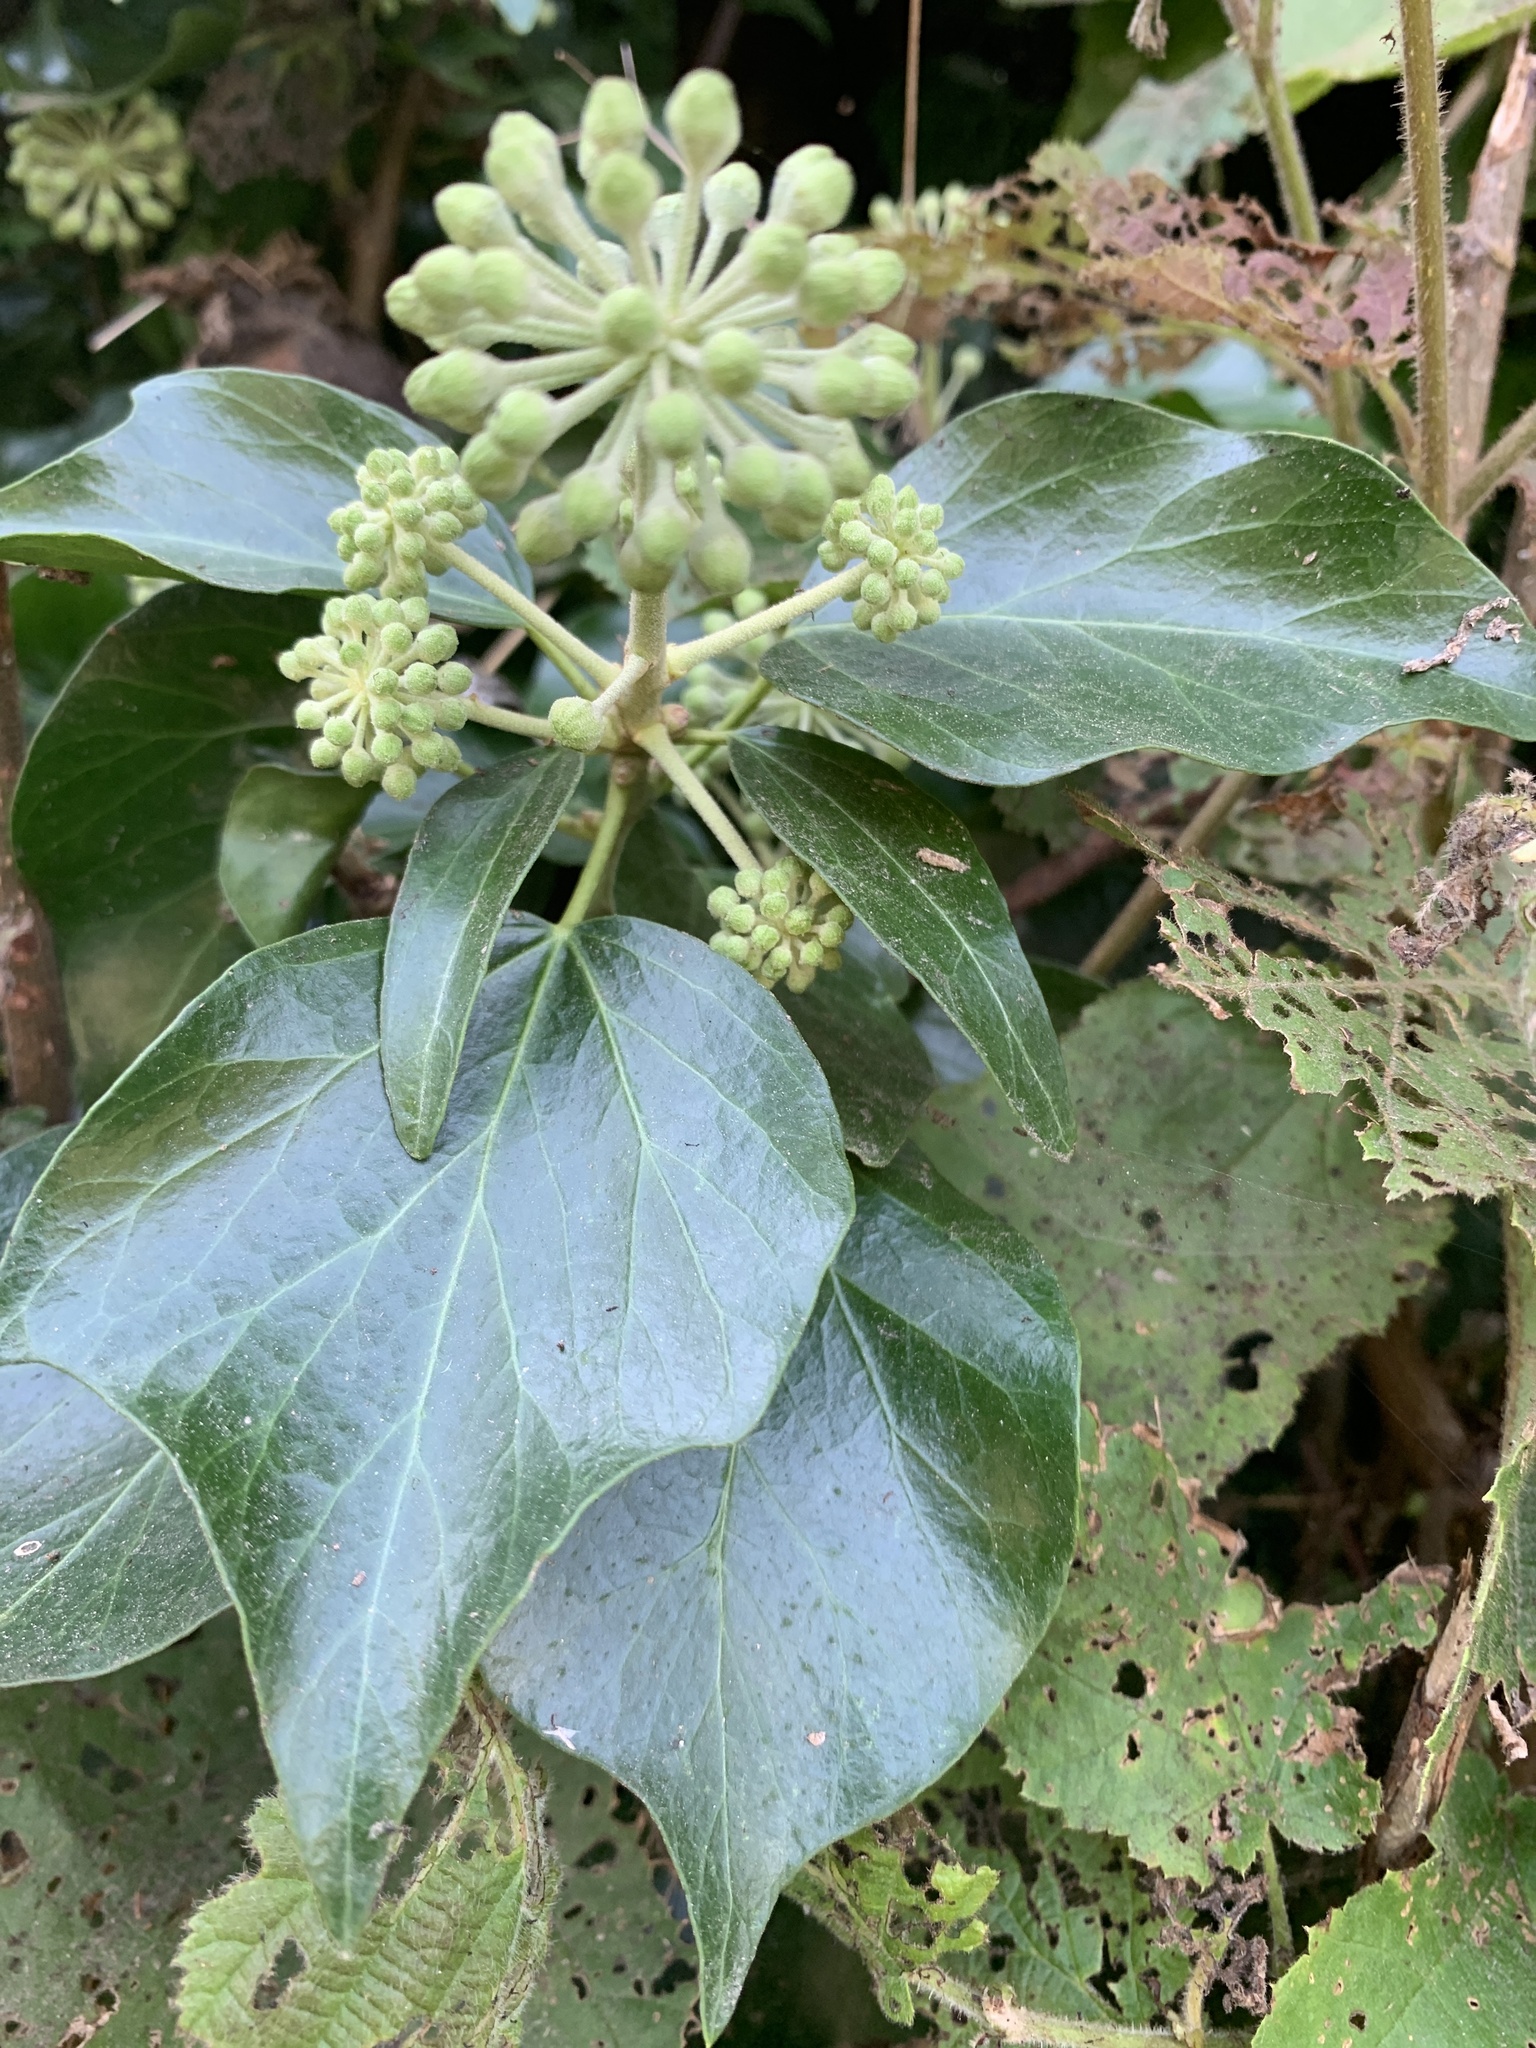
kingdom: Plantae
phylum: Tracheophyta
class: Magnoliopsida
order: Apiales
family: Araliaceae
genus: Hedera
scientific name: Hedera helix
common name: Ivy
